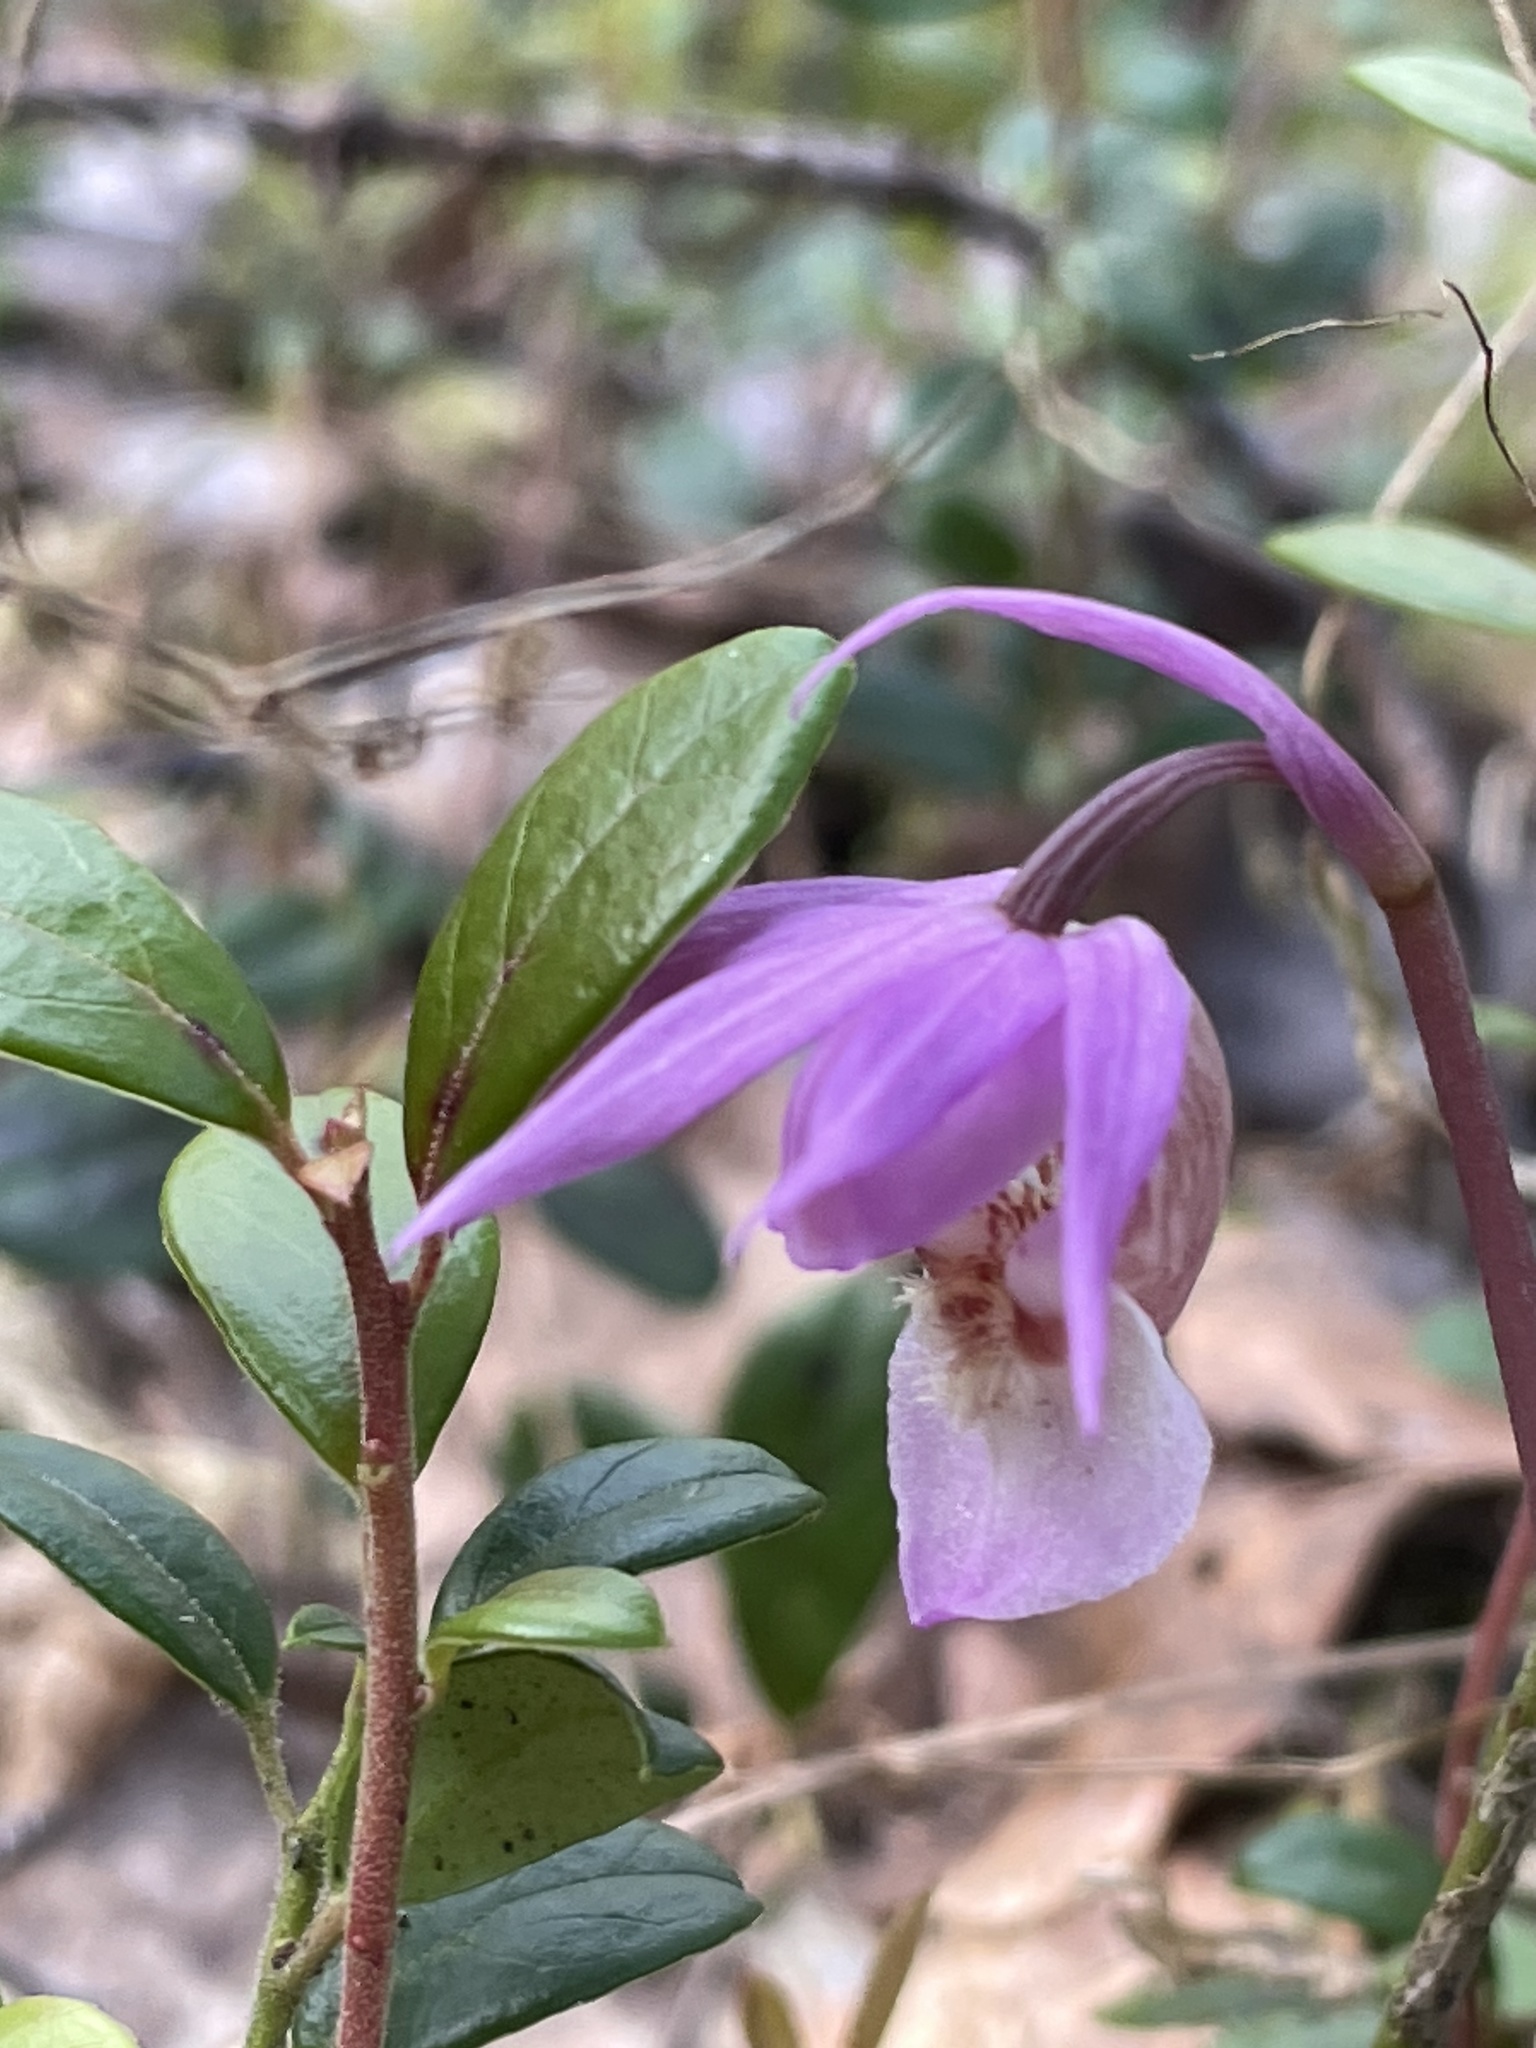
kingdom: Plantae
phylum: Tracheophyta
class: Liliopsida
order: Asparagales
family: Orchidaceae
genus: Calypso
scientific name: Calypso bulbosa
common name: Calypso
